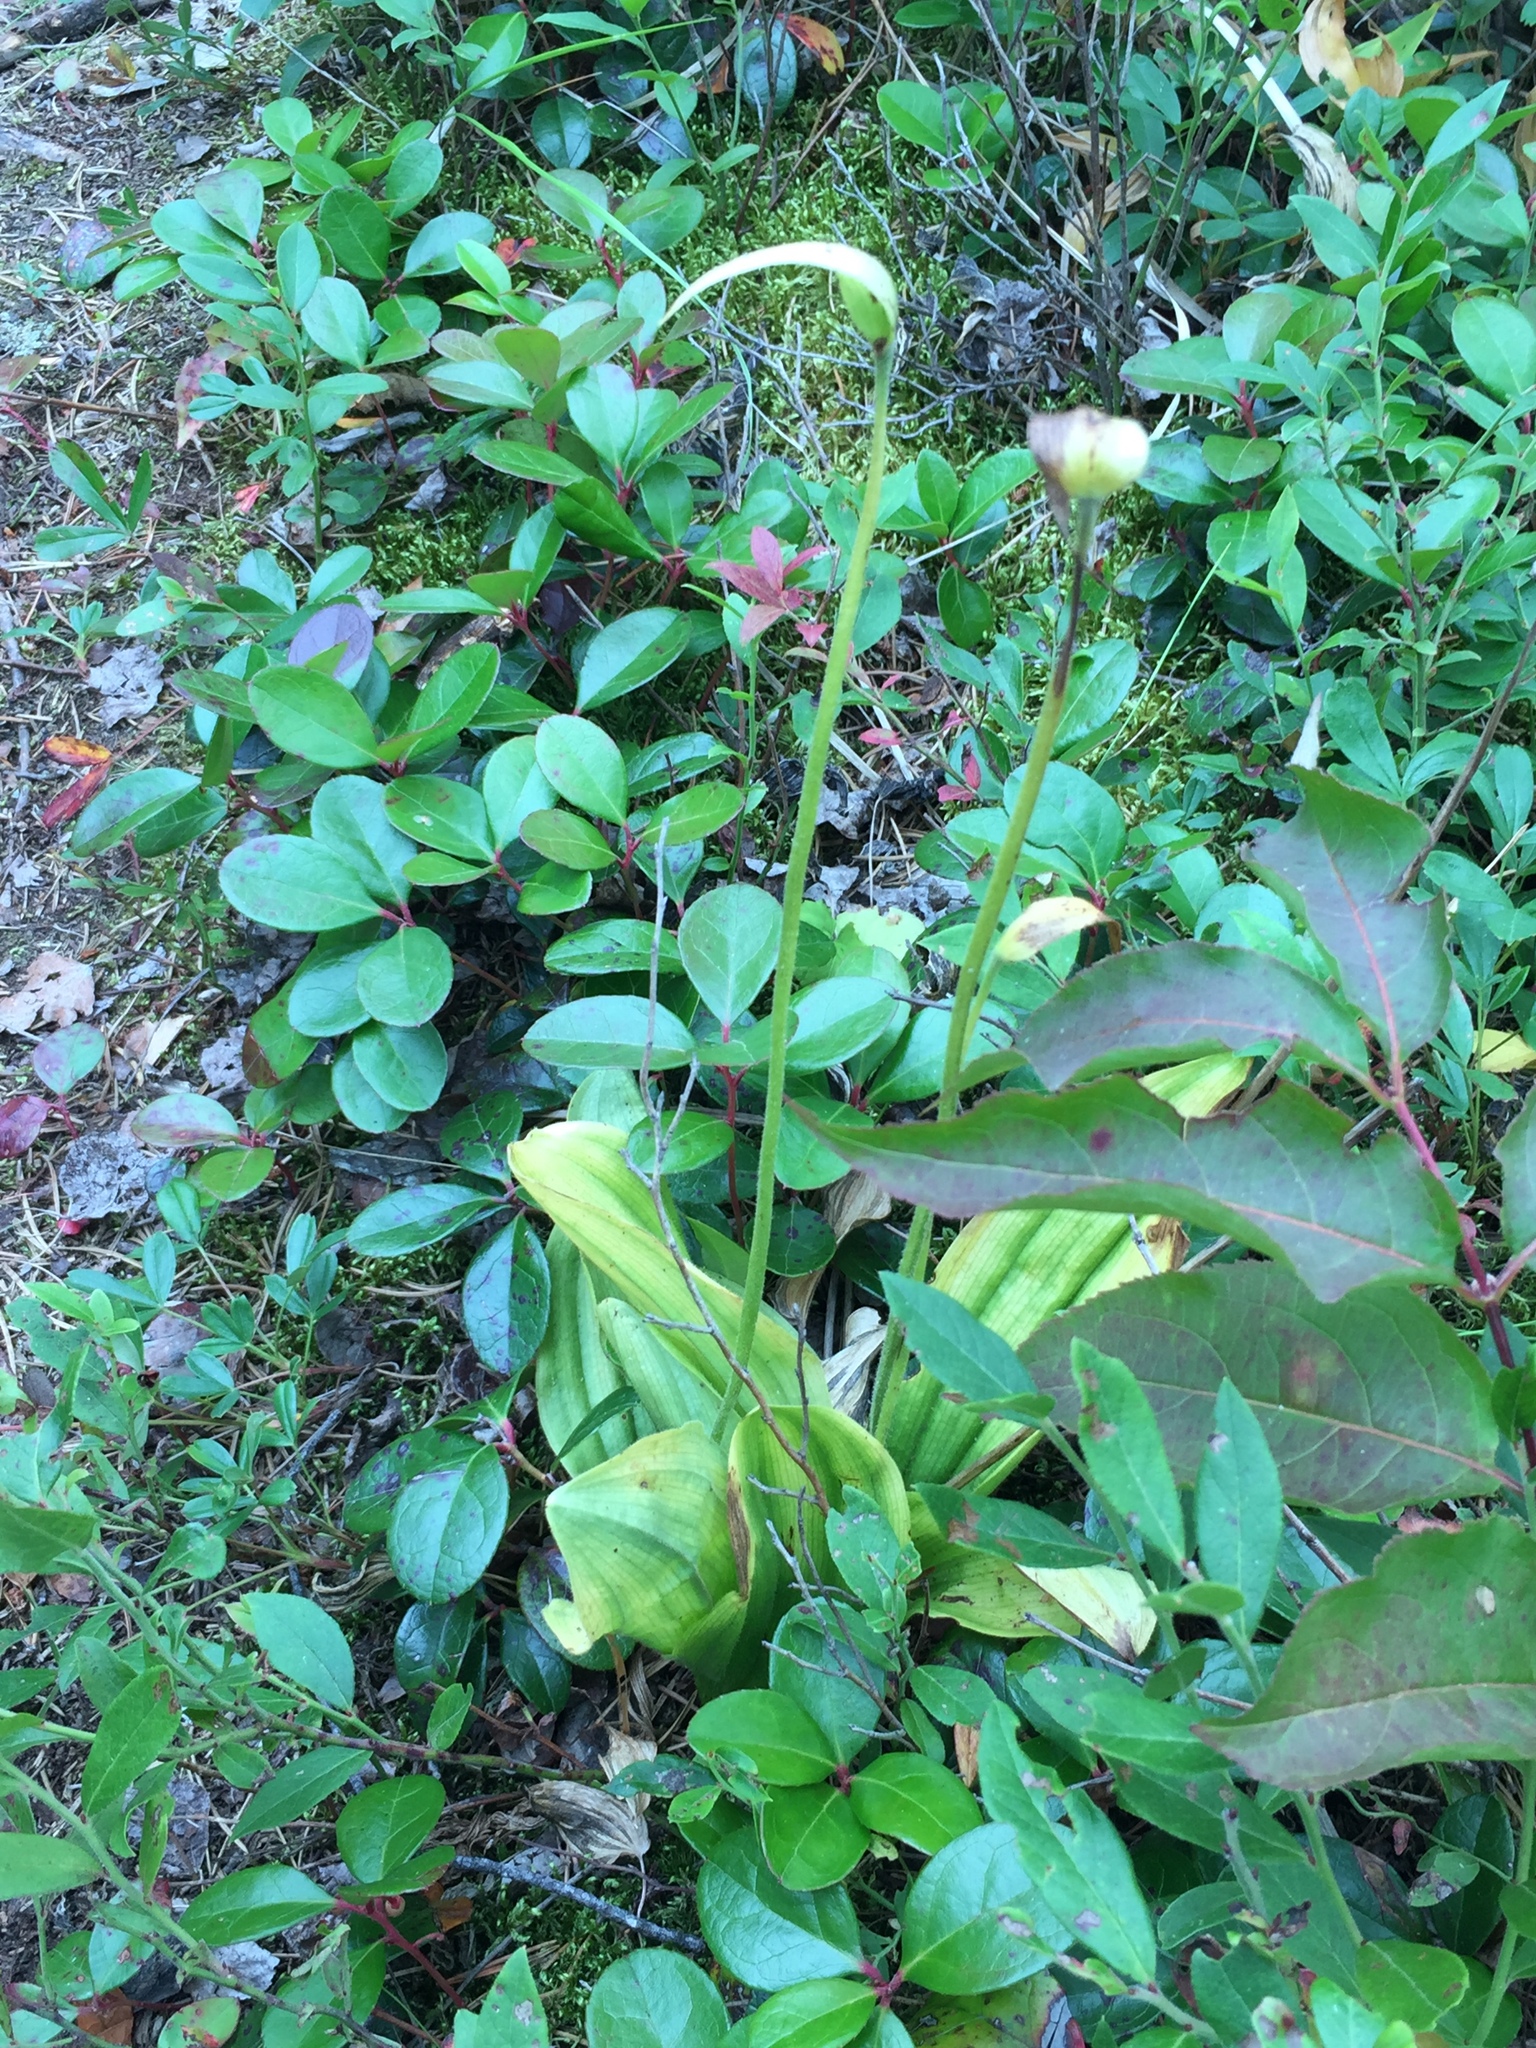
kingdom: Plantae
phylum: Tracheophyta
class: Liliopsida
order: Asparagales
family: Orchidaceae
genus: Cypripedium
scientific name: Cypripedium acaule
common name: Pink lady's-slipper
